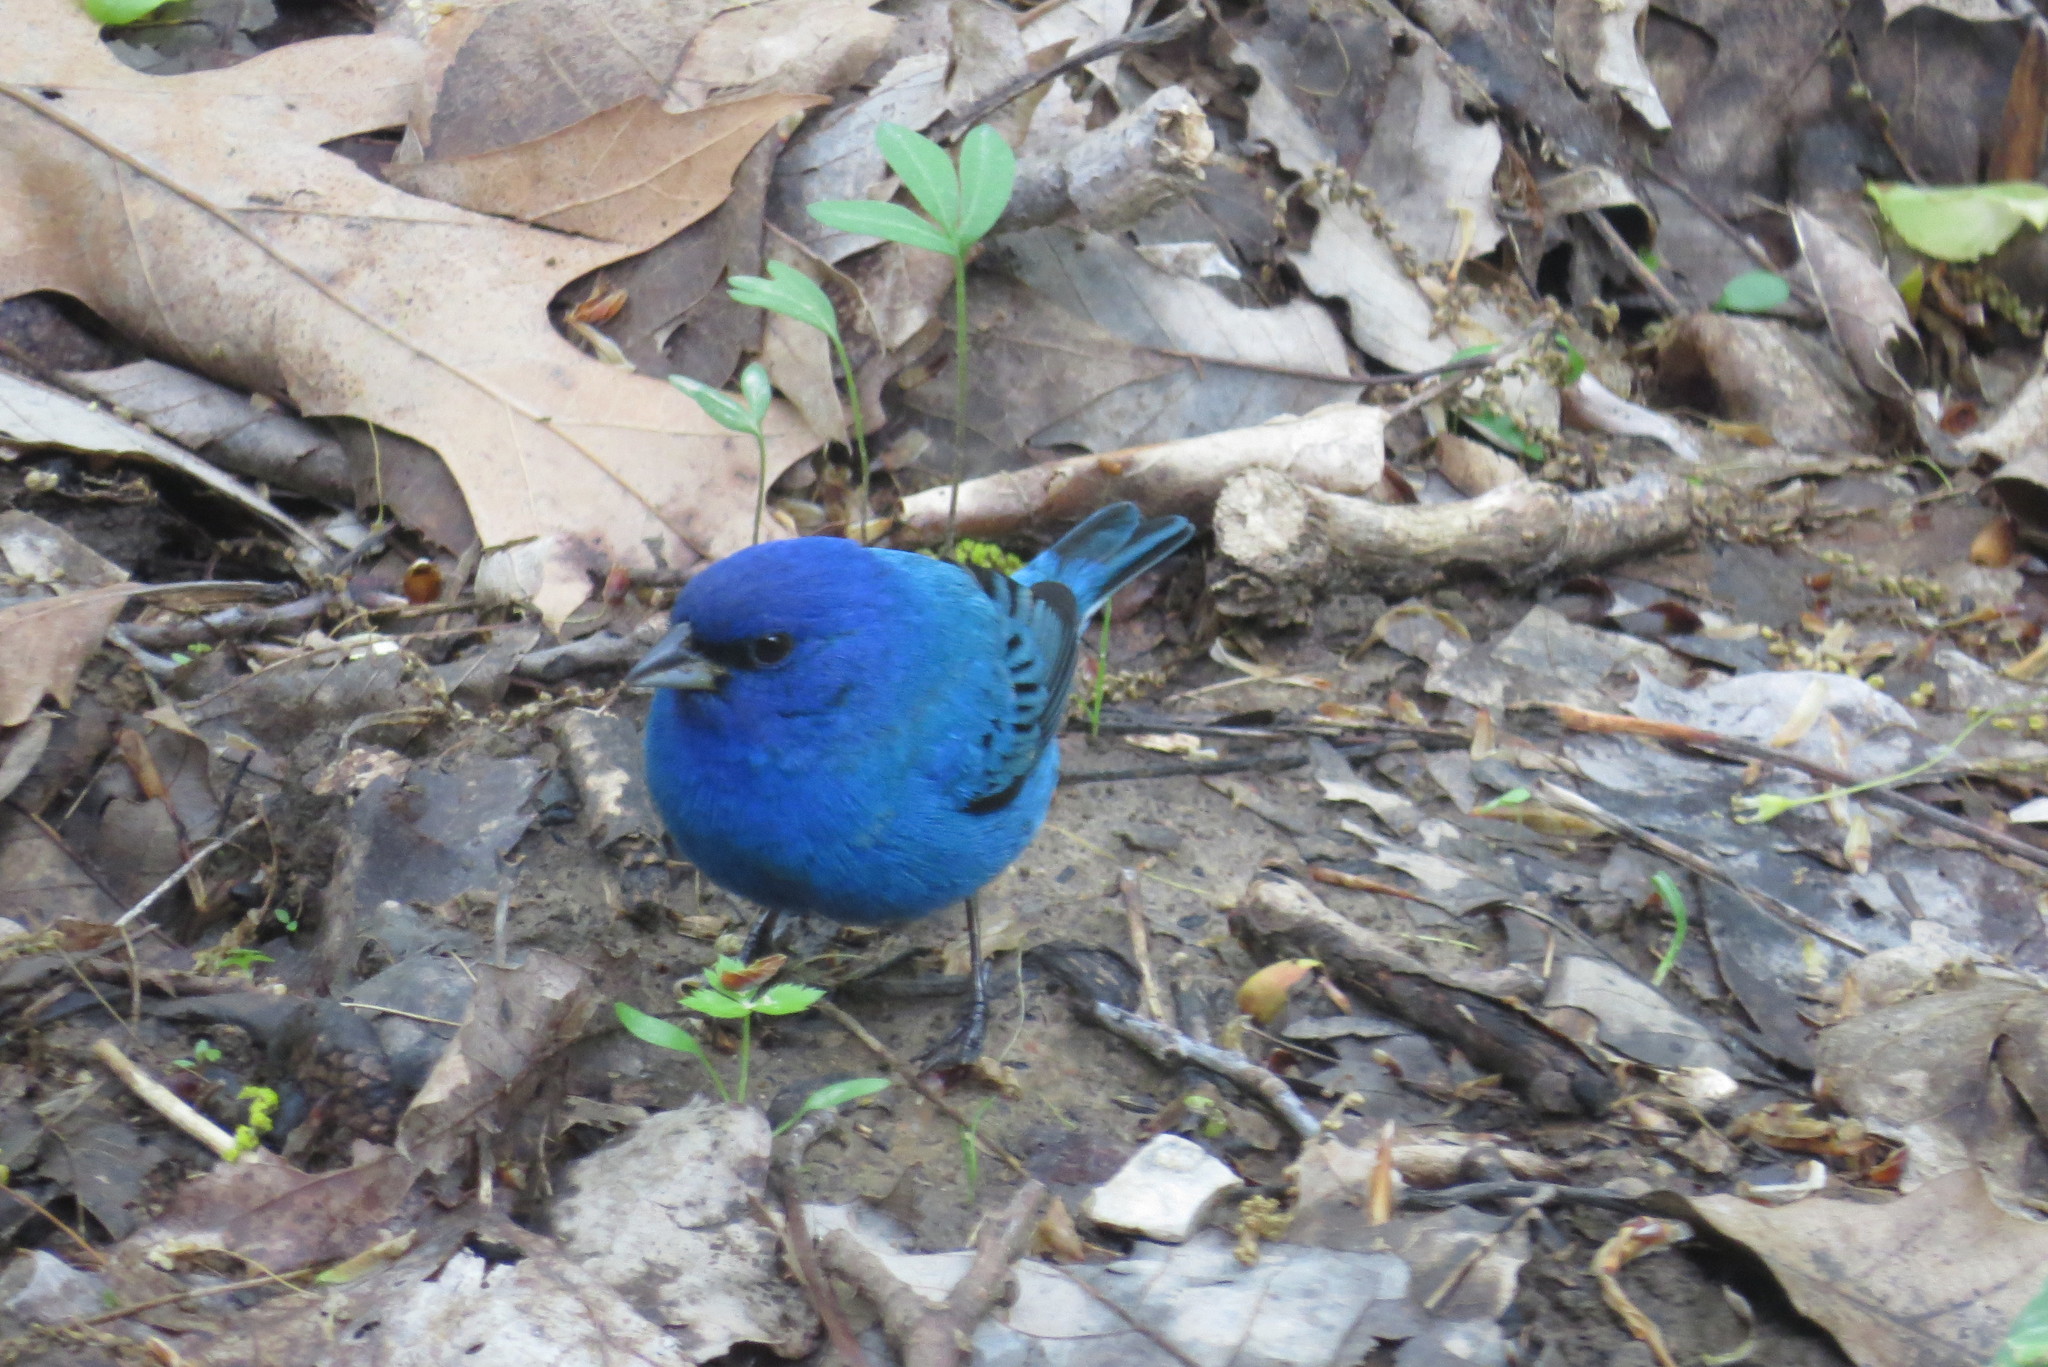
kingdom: Animalia
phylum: Chordata
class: Aves
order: Passeriformes
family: Cardinalidae
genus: Passerina
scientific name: Passerina cyanea
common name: Indigo bunting
